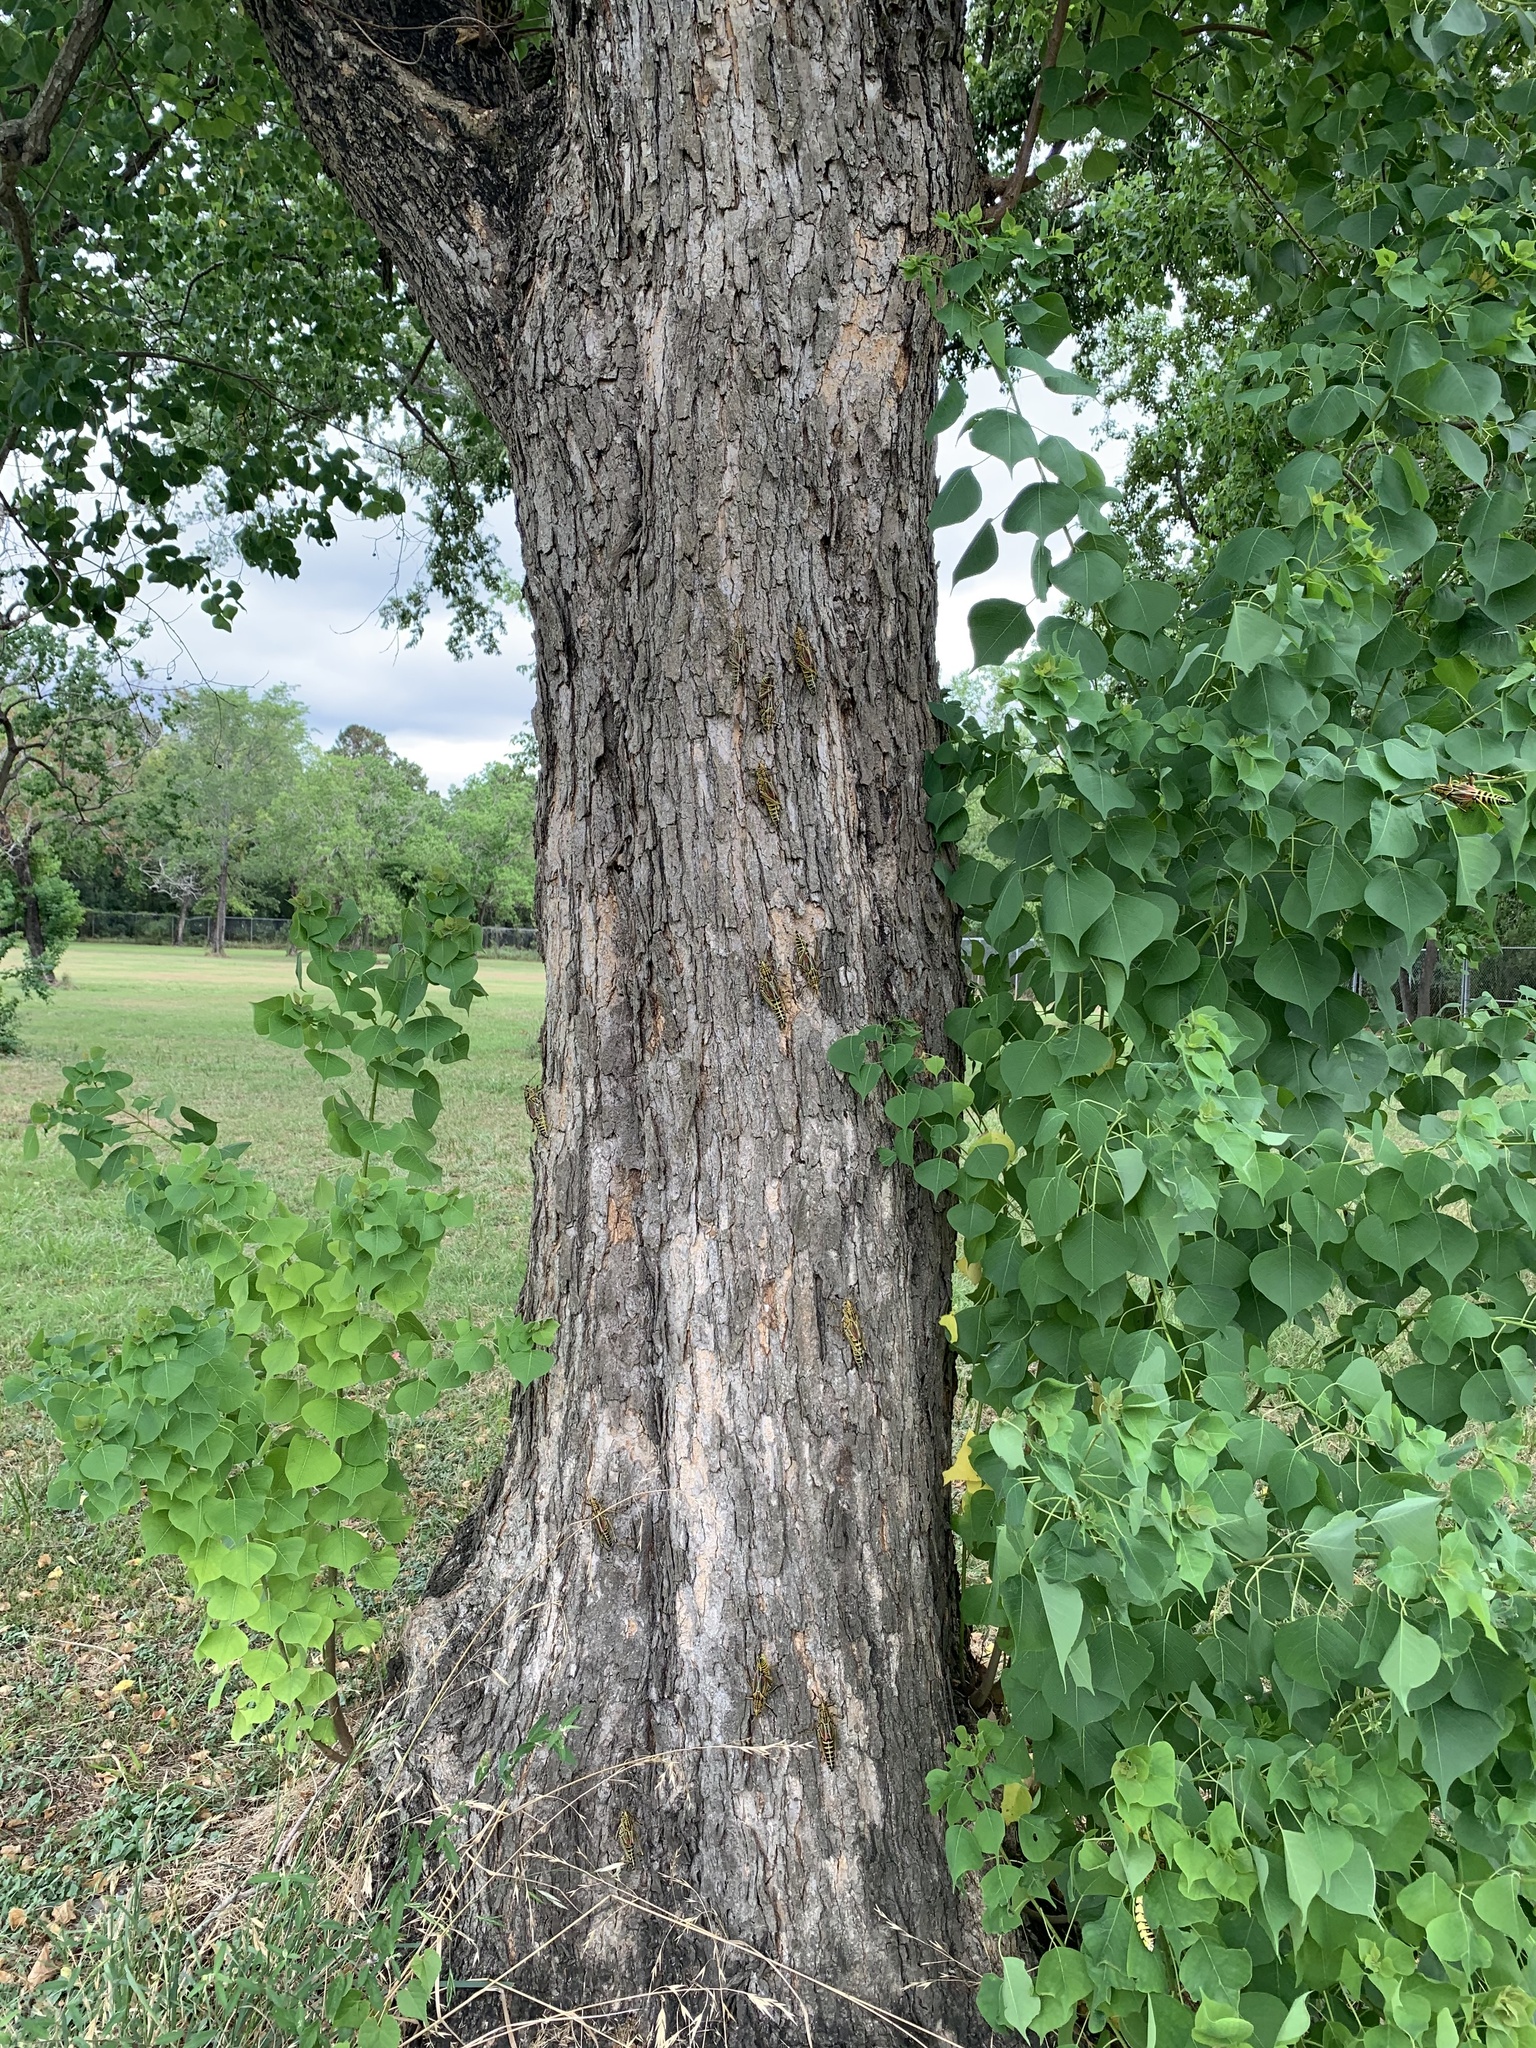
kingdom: Animalia
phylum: Arthropoda
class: Insecta
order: Orthoptera
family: Romaleidae
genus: Romalea
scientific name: Romalea microptera
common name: Eastern lubber grasshopper
